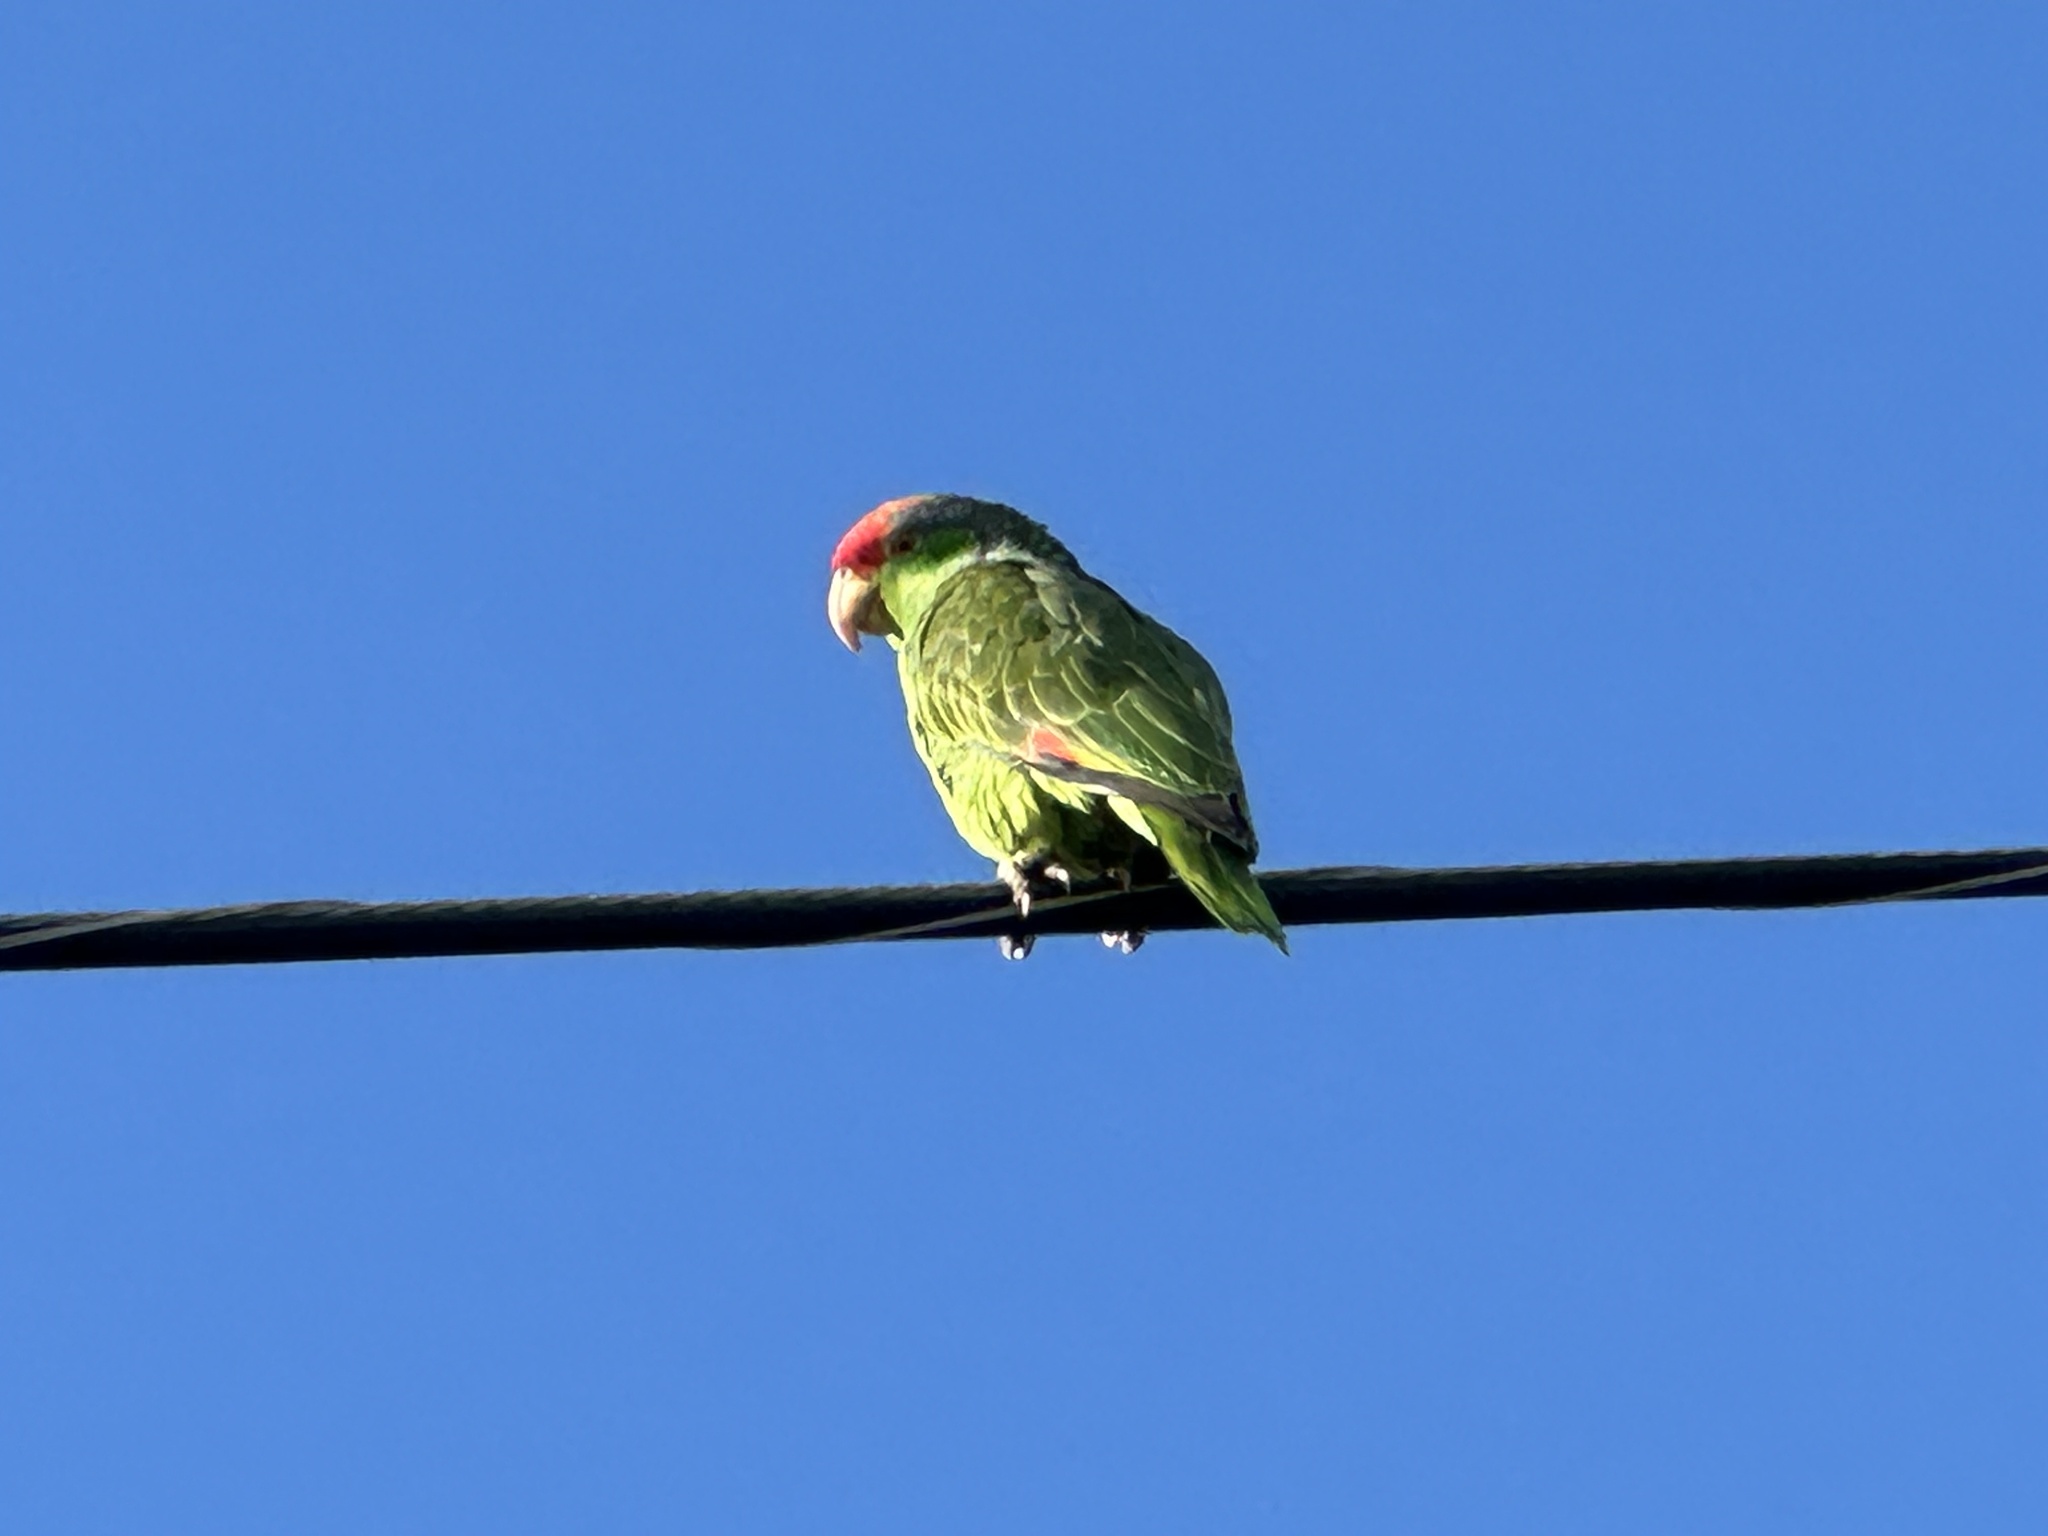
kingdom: Animalia
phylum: Chordata
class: Aves
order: Psittaciformes
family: Psittacidae
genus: Amazona
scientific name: Amazona viridigenalis
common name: Red-crowned amazon
